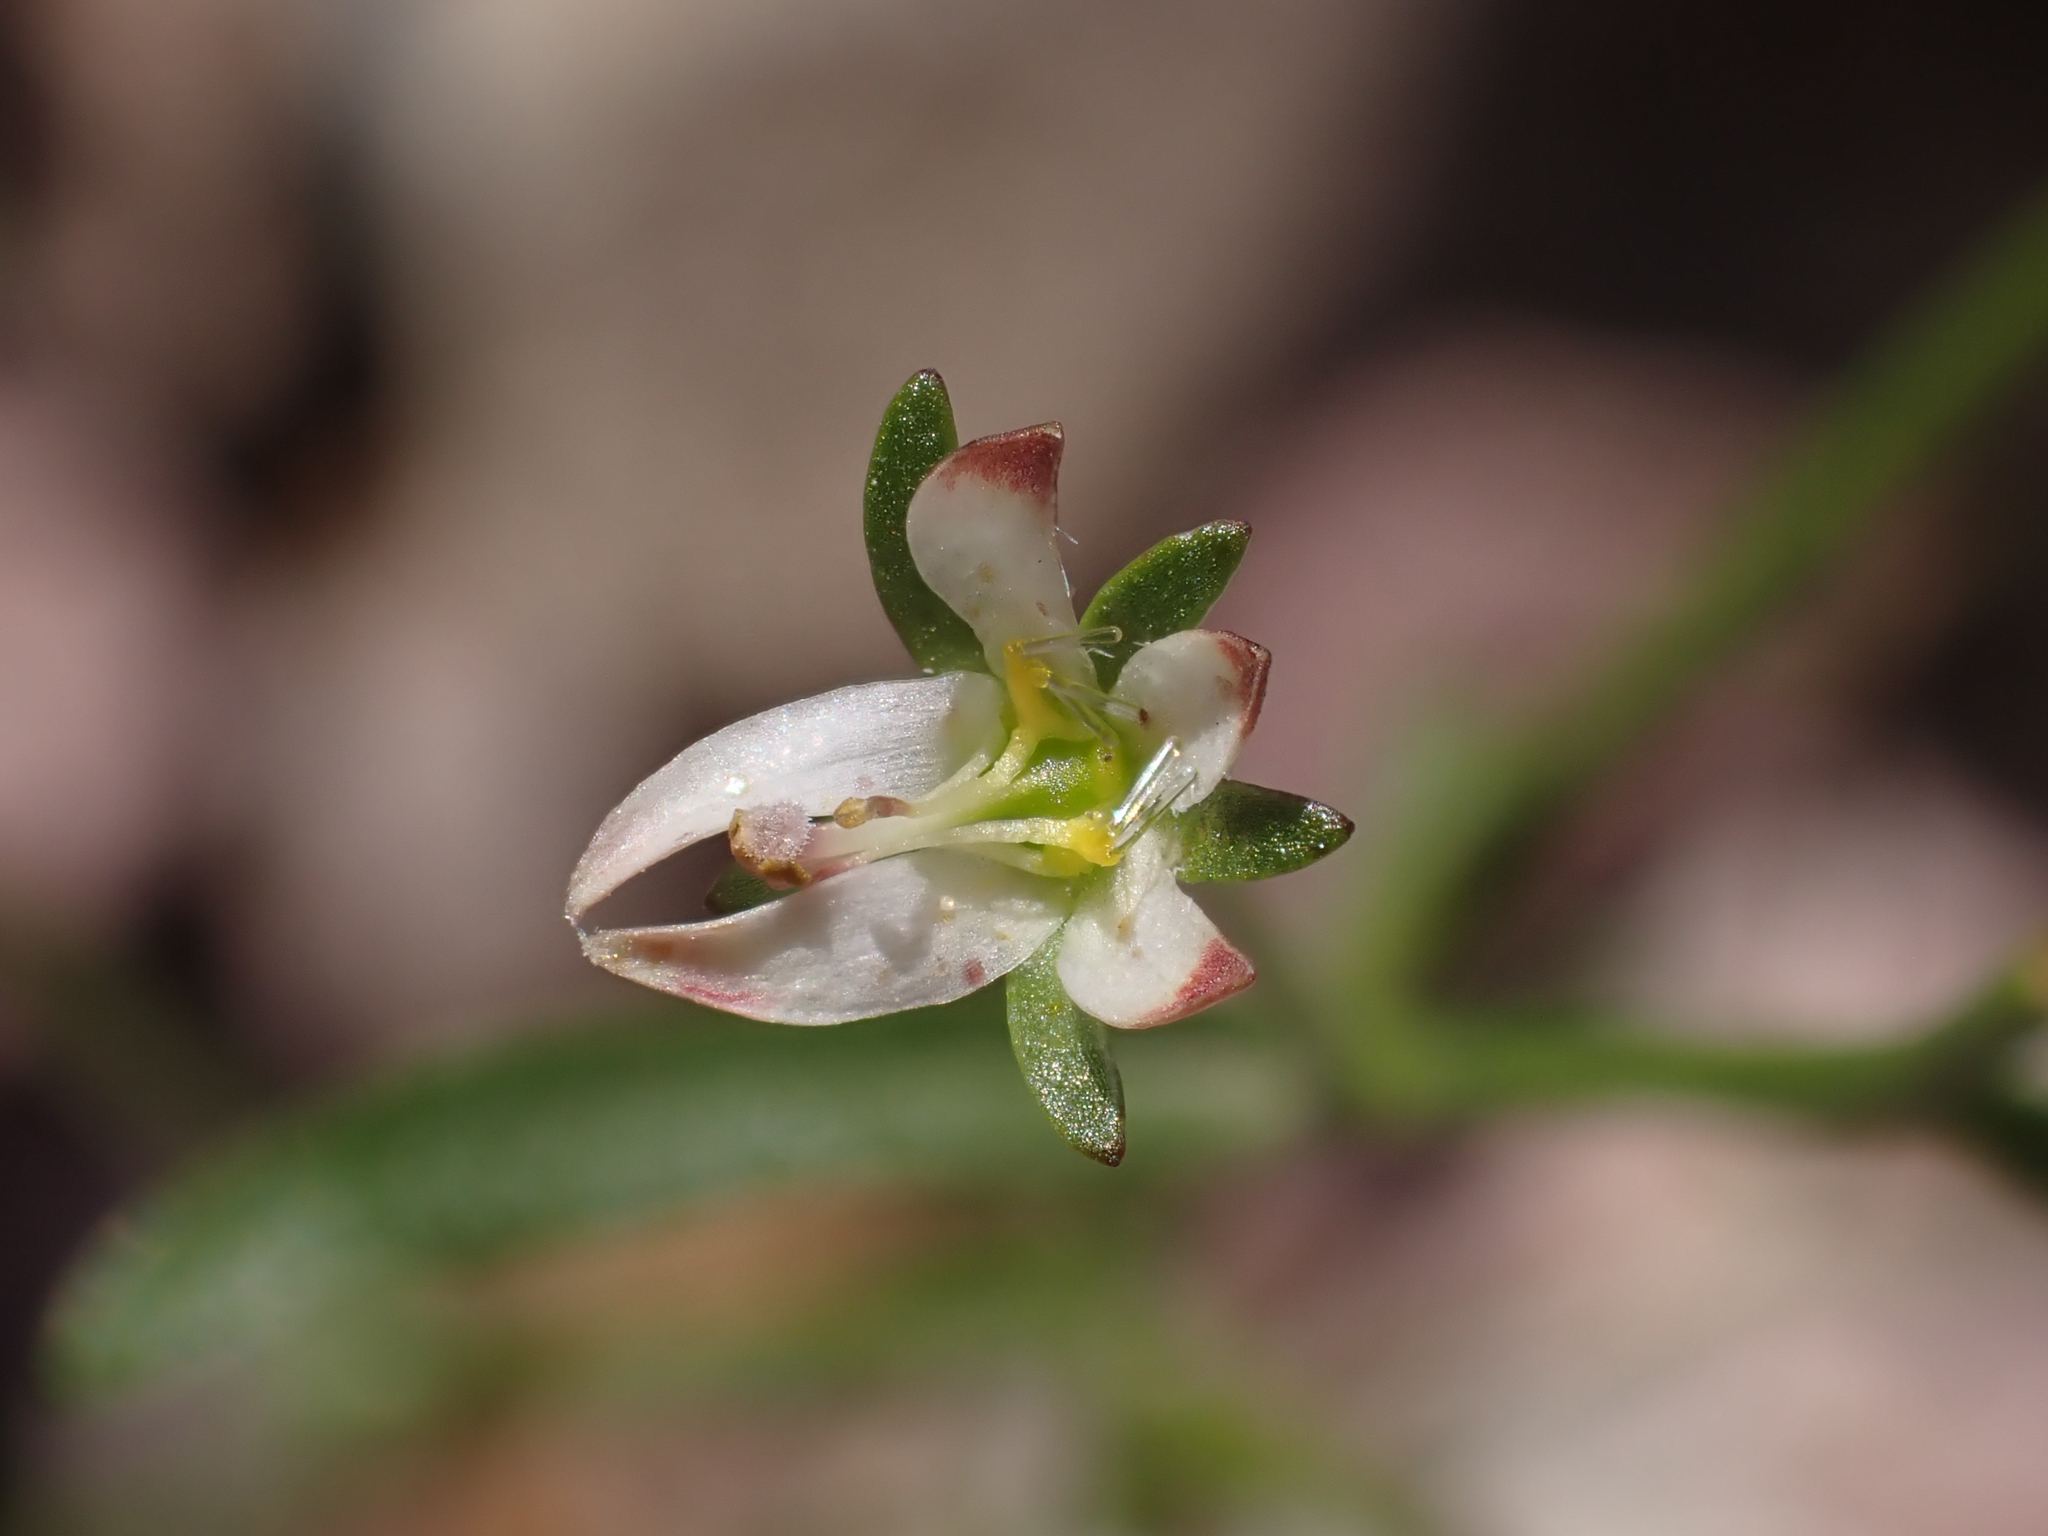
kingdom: Plantae
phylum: Tracheophyta
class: Magnoliopsida
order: Asterales
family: Campanulaceae
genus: Nemacladus
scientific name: Nemacladus orientalis
